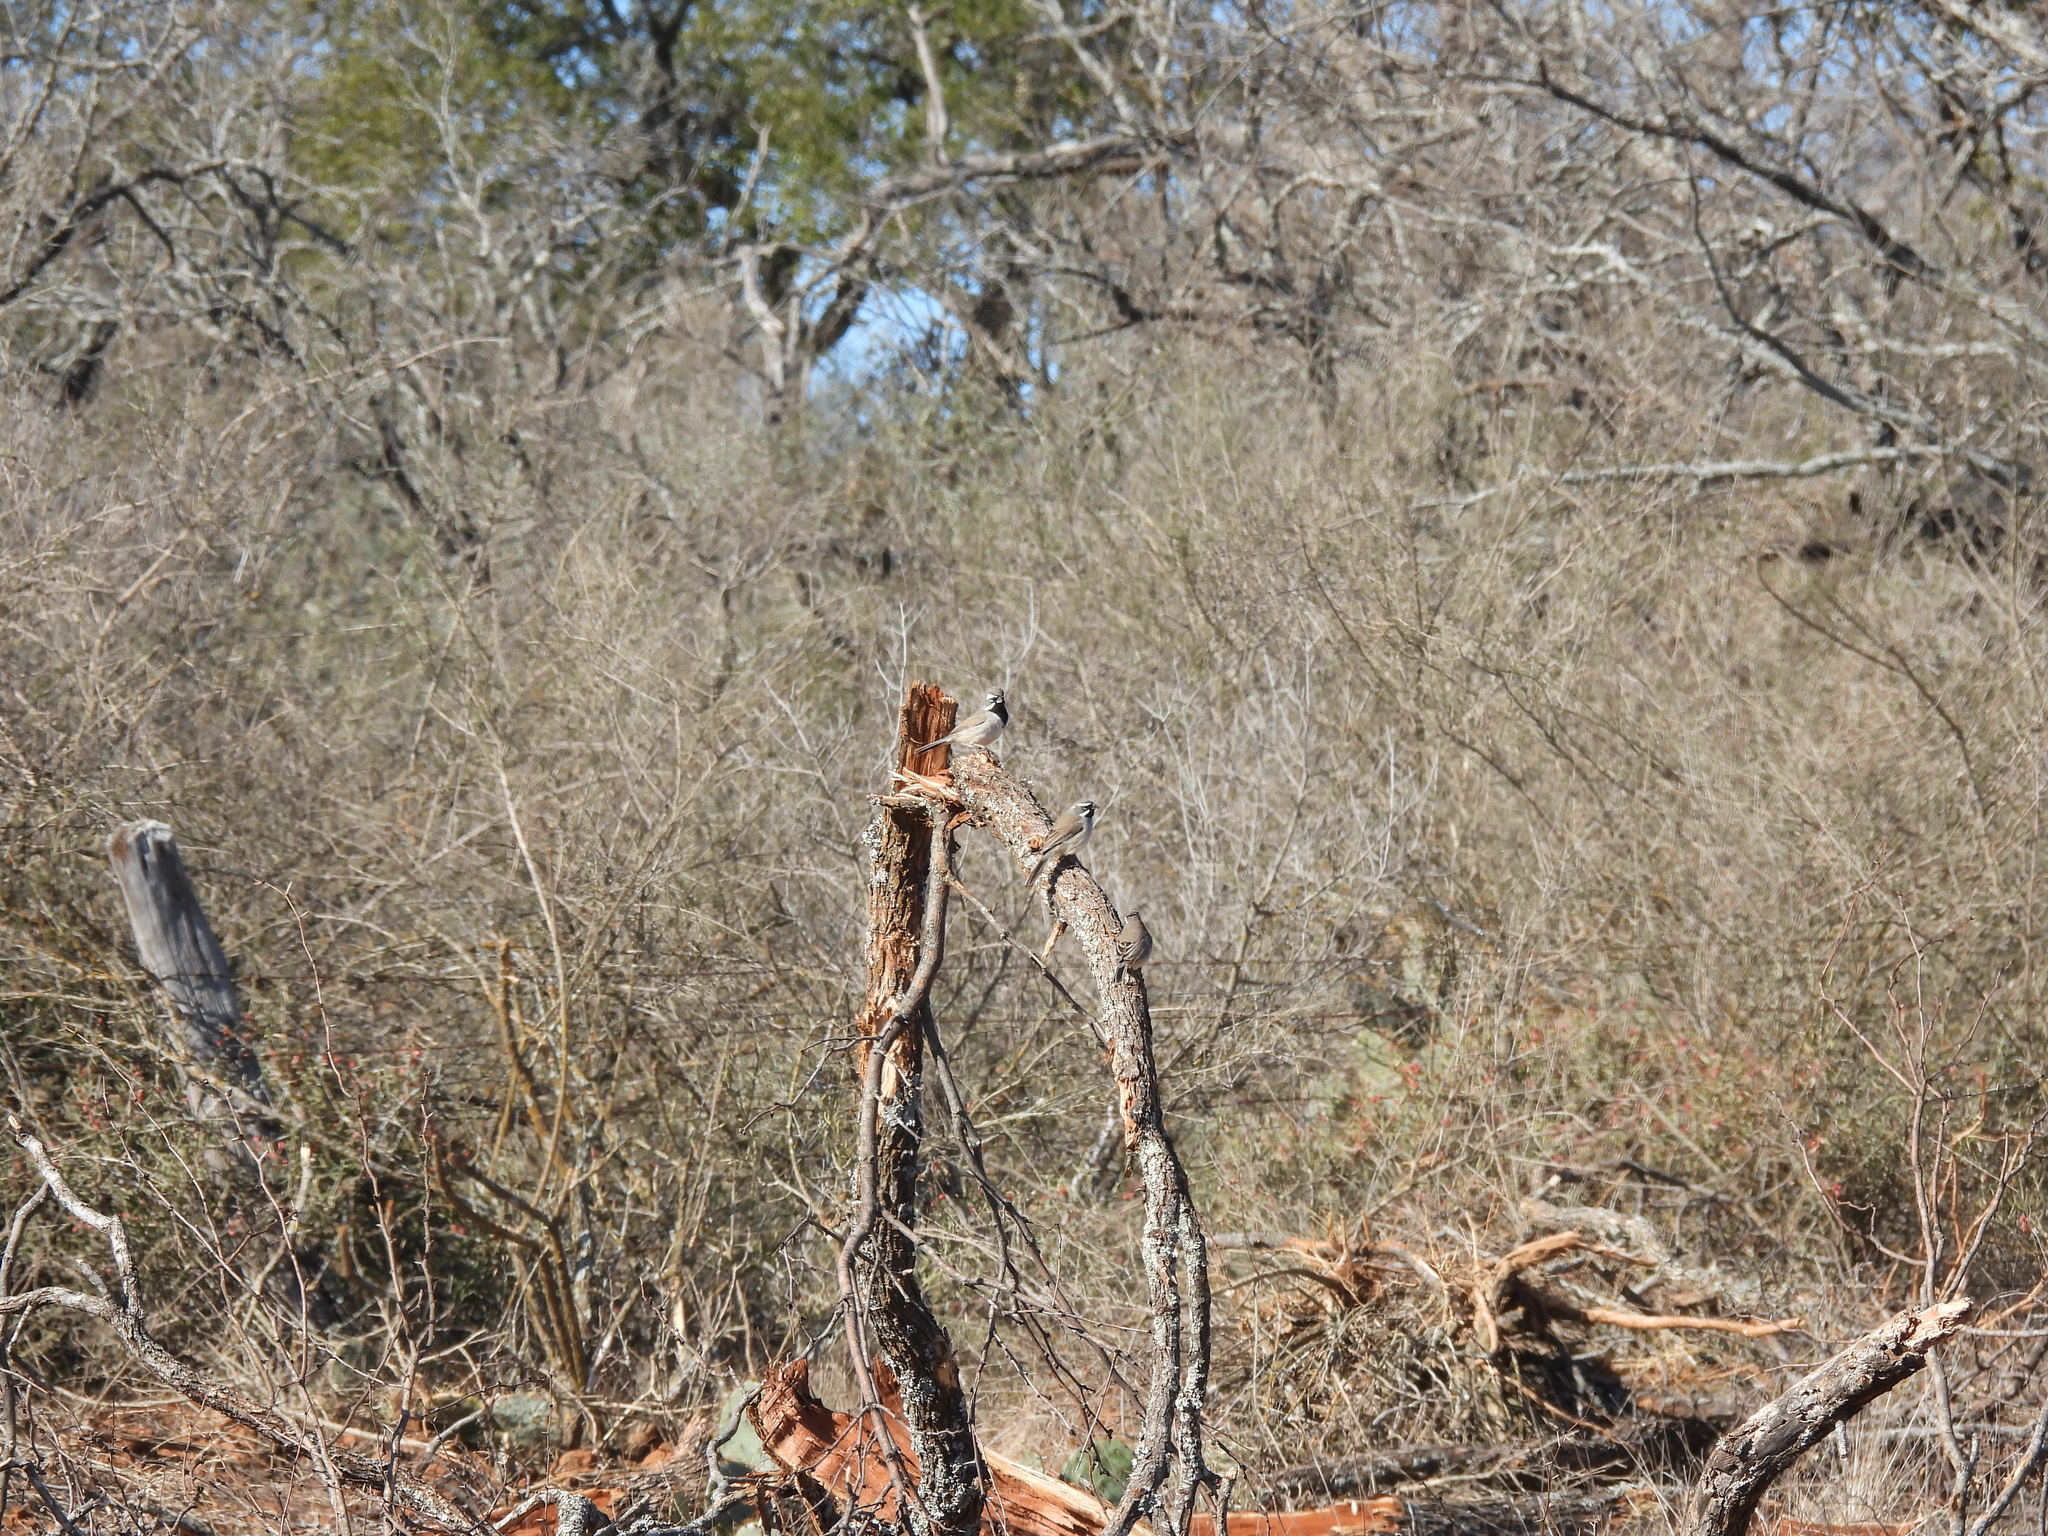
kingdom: Animalia
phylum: Chordata
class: Aves
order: Passeriformes
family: Passerellidae
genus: Amphispiza
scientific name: Amphispiza bilineata
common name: Black-throated sparrow
